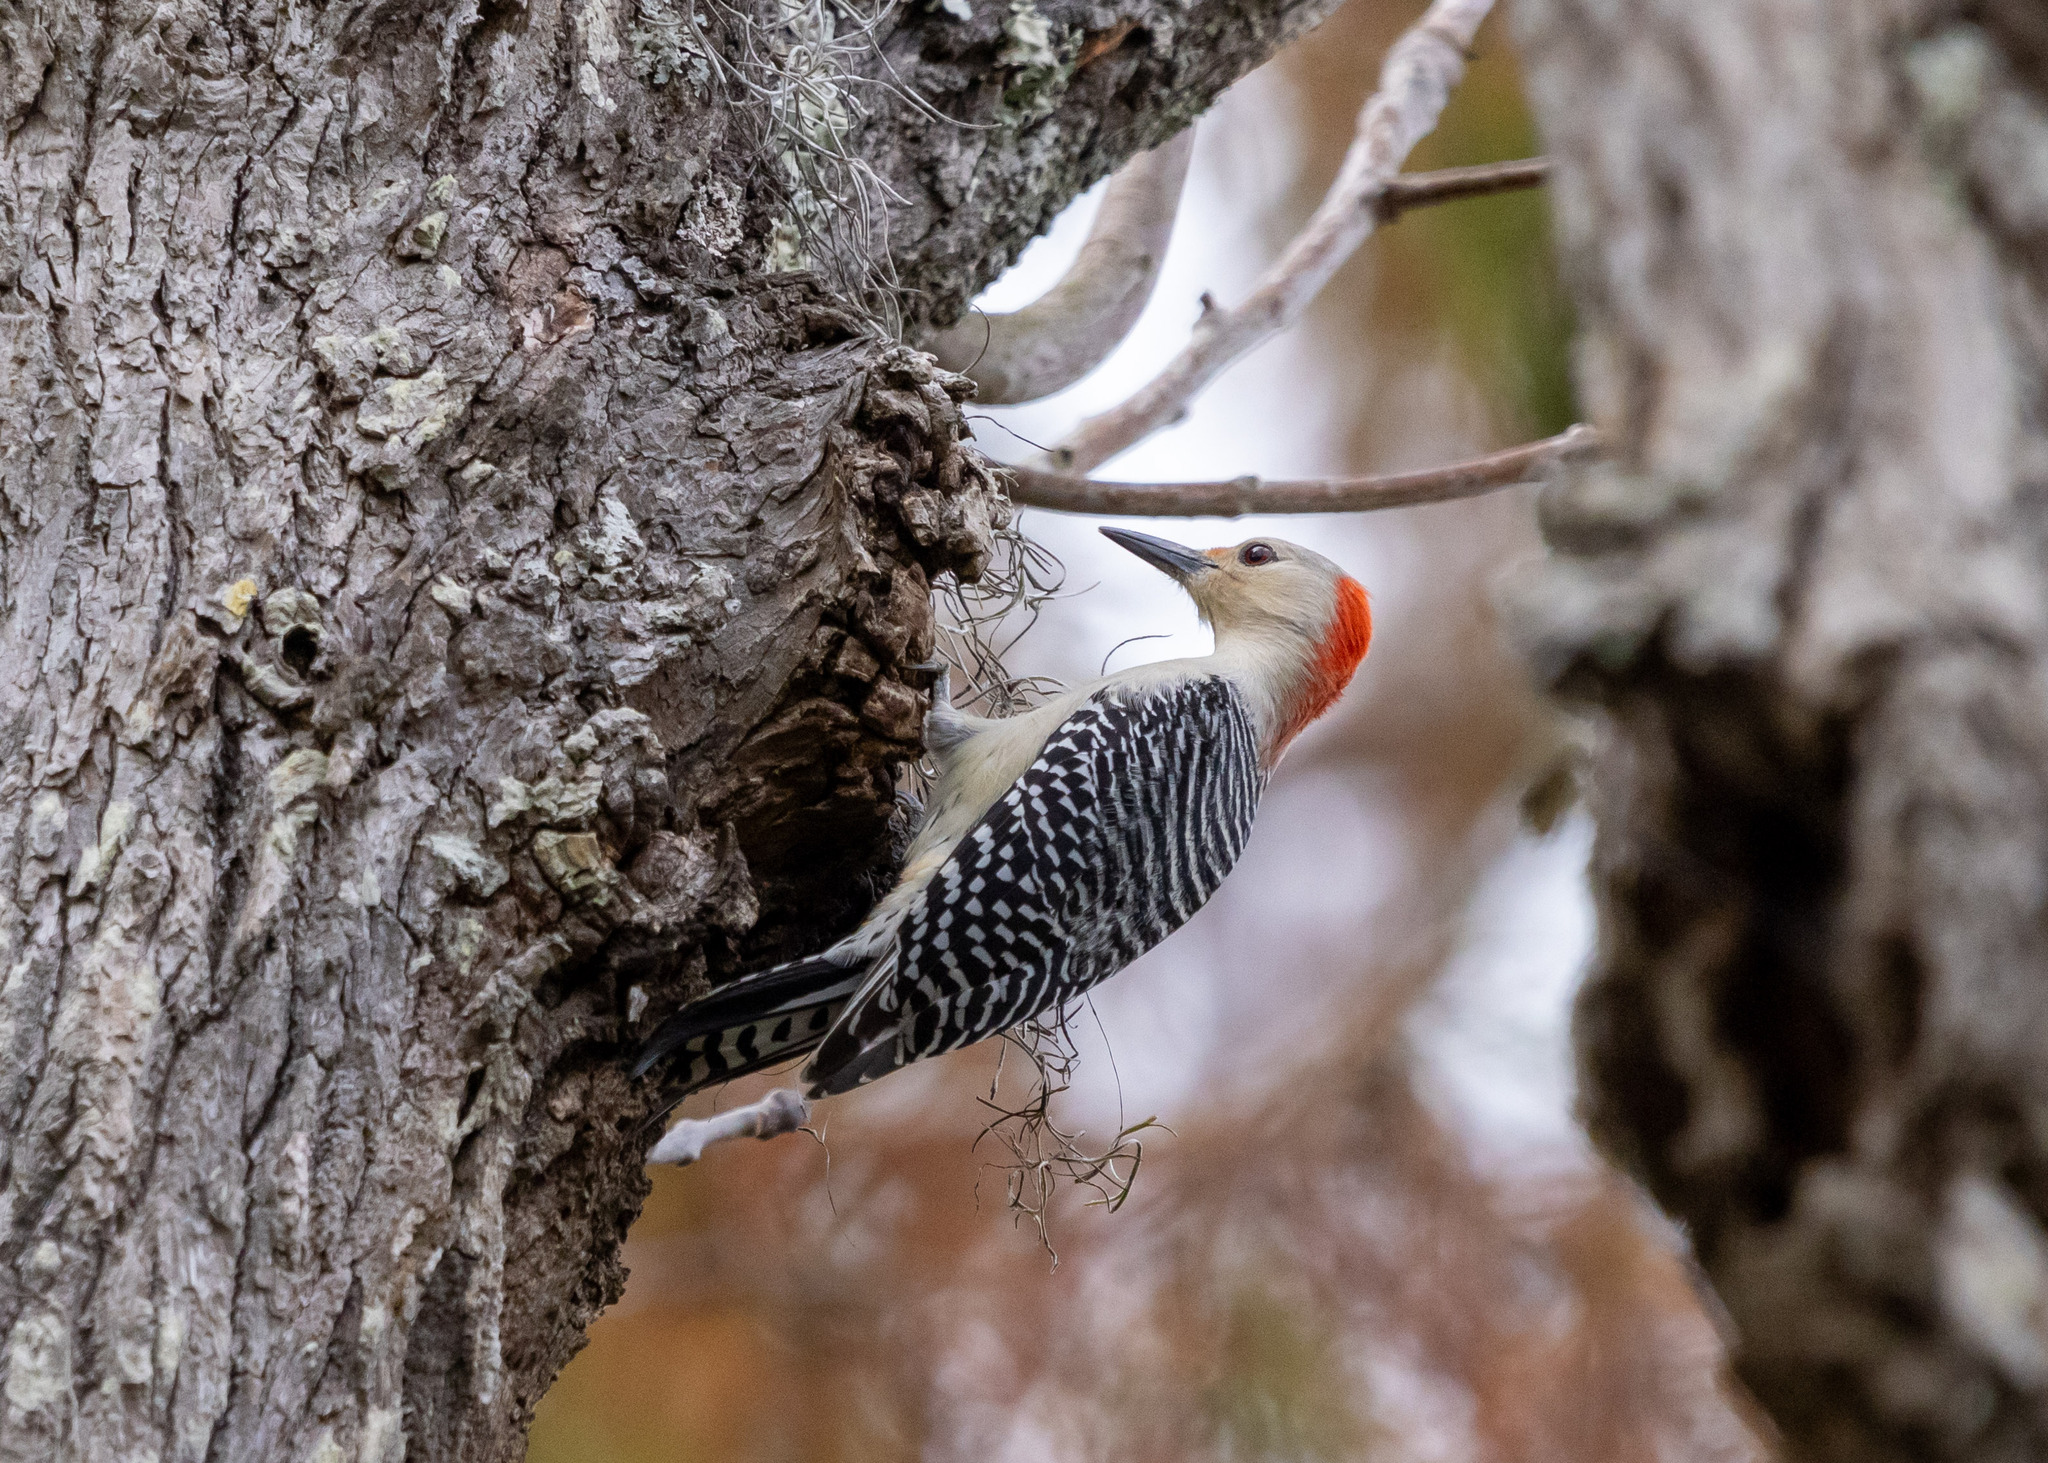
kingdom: Animalia
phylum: Chordata
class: Aves
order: Piciformes
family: Picidae
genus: Melanerpes
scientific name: Melanerpes carolinus
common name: Red-bellied woodpecker
